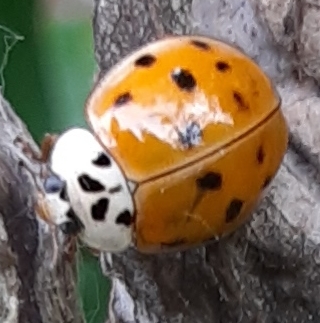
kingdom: Animalia
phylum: Arthropoda
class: Insecta
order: Coleoptera
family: Coccinellidae
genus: Harmonia
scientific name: Harmonia axyridis
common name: Harlequin ladybird
